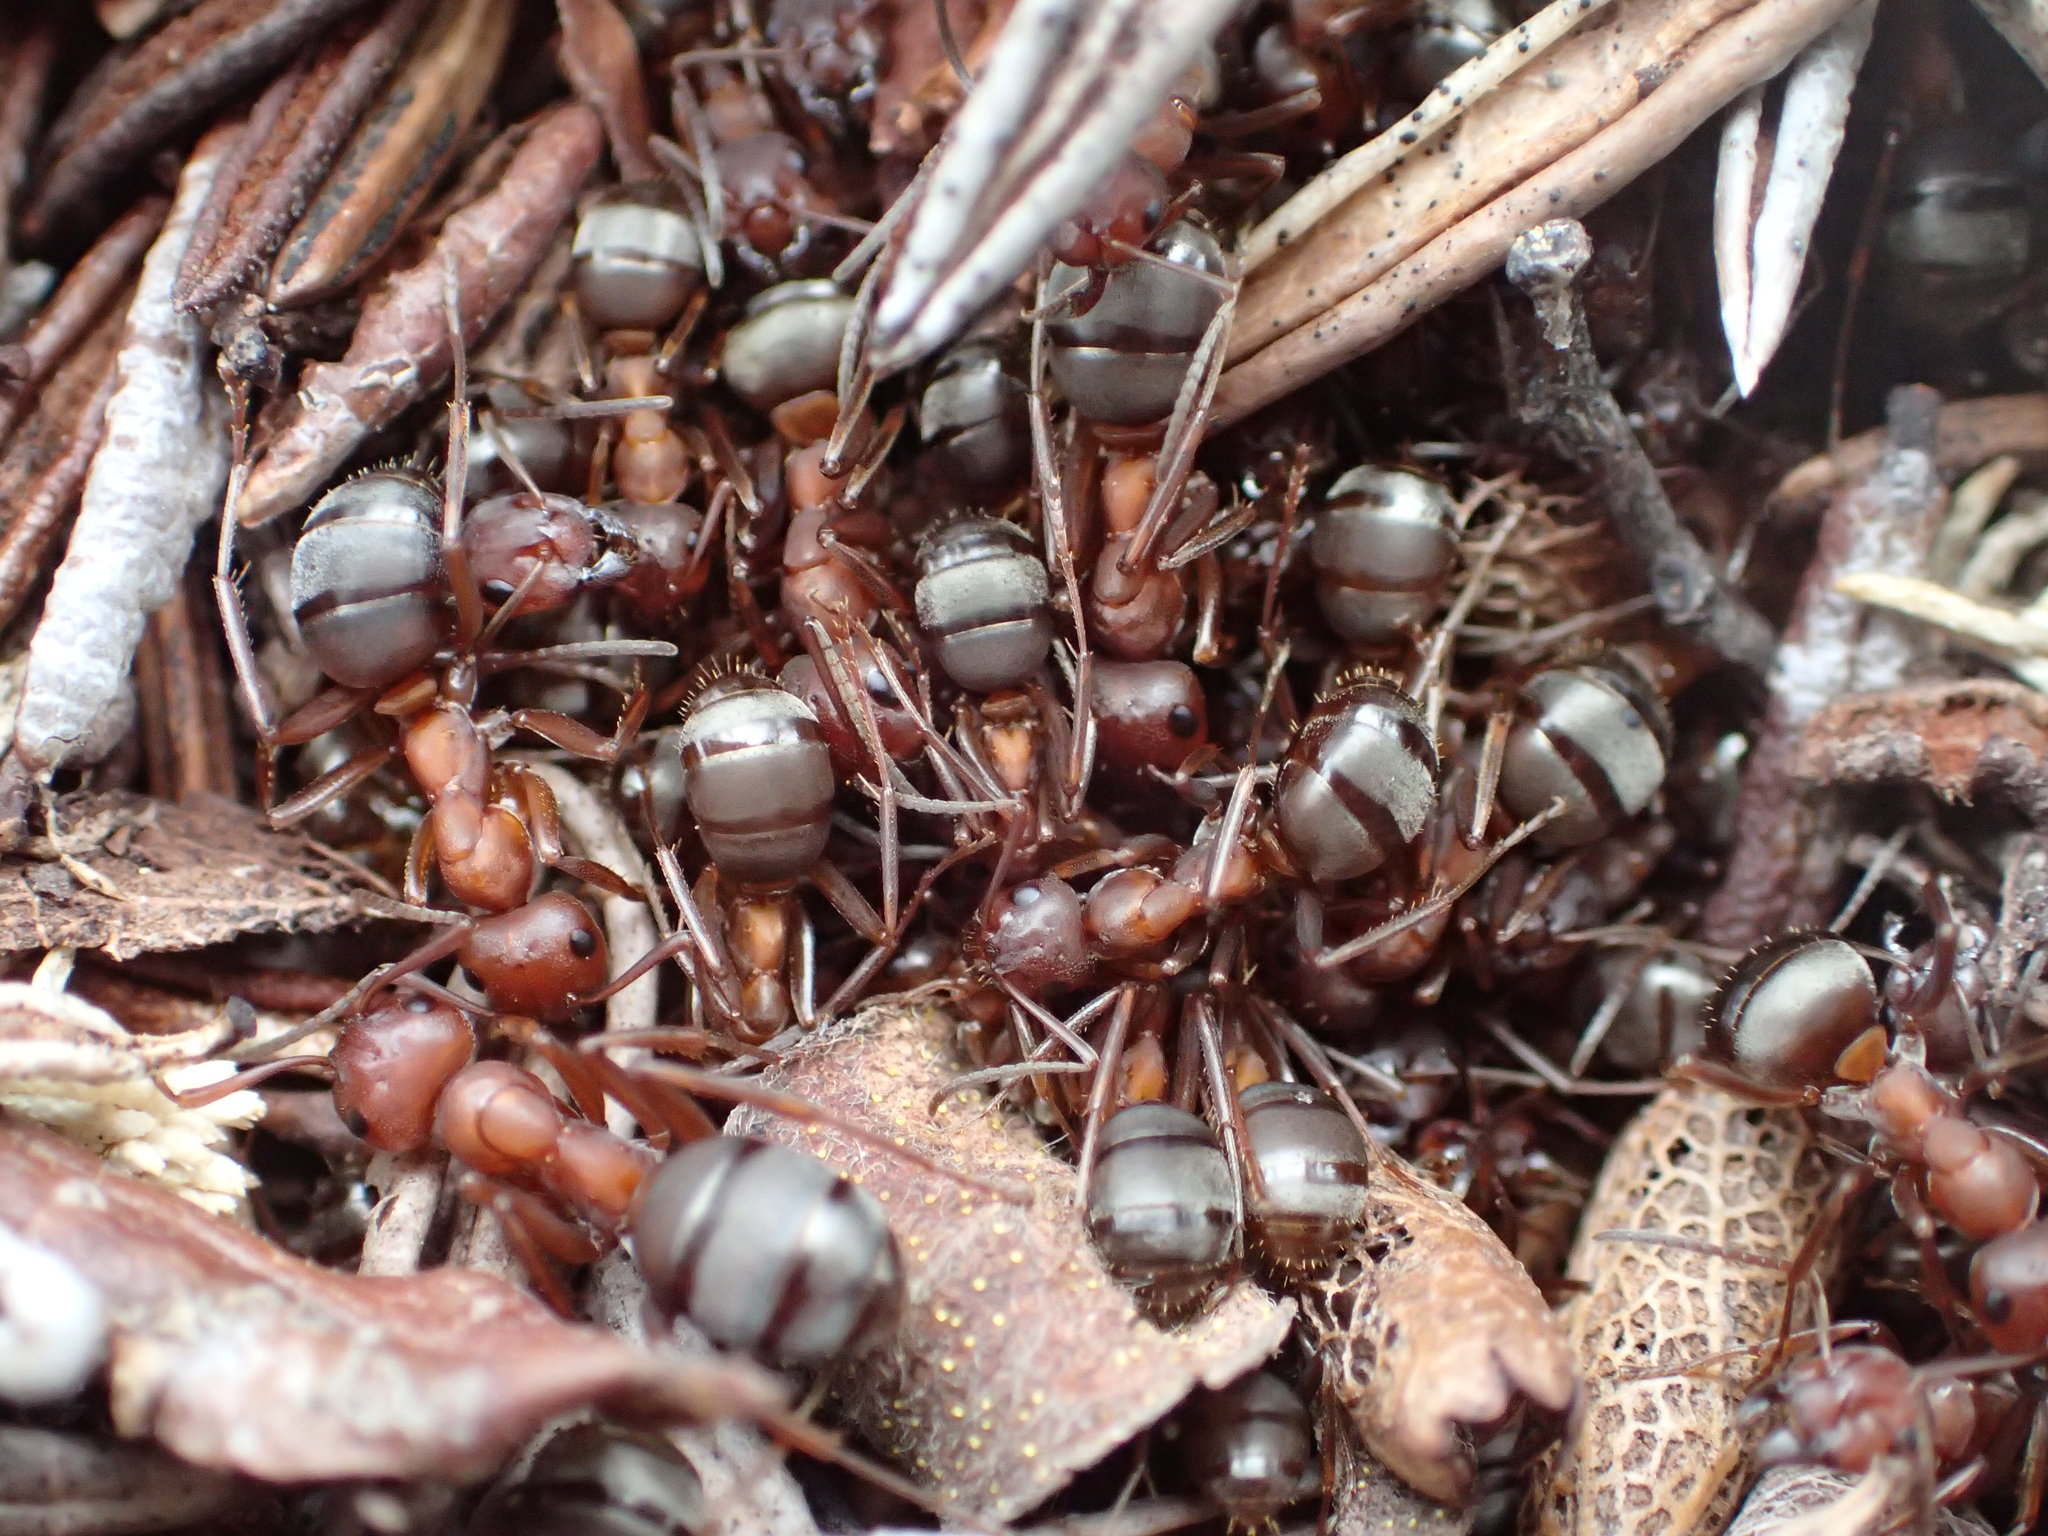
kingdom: Animalia
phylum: Arthropoda
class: Insecta
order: Hymenoptera
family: Formicidae
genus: Formica
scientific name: Formica aserva
